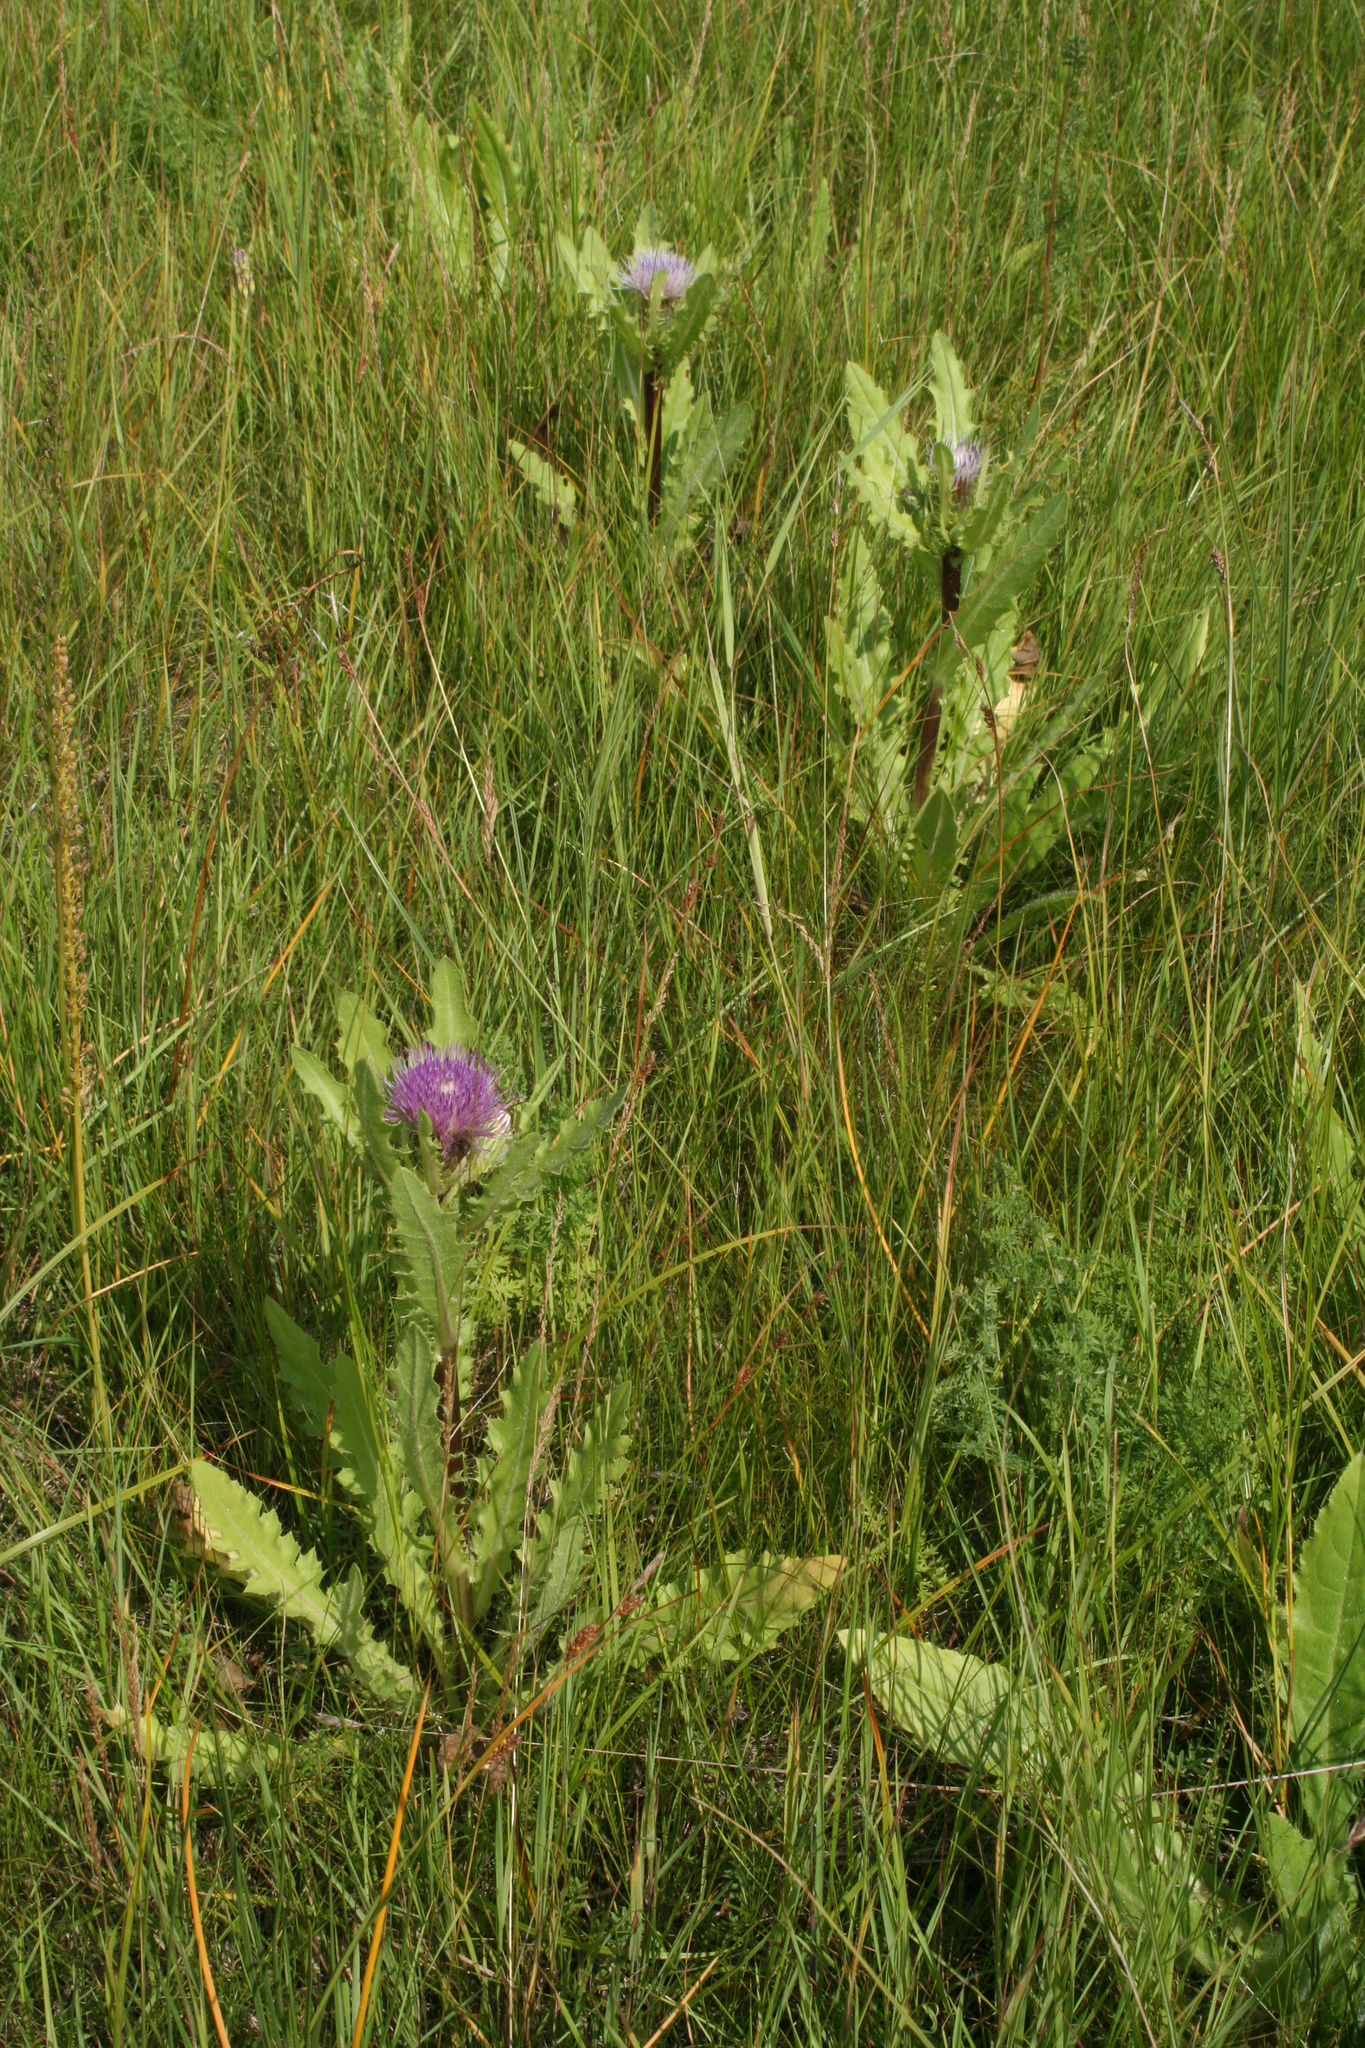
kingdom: Plantae
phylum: Tracheophyta
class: Magnoliopsida
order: Asterales
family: Asteraceae
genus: Cirsium
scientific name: Cirsium esculentum
